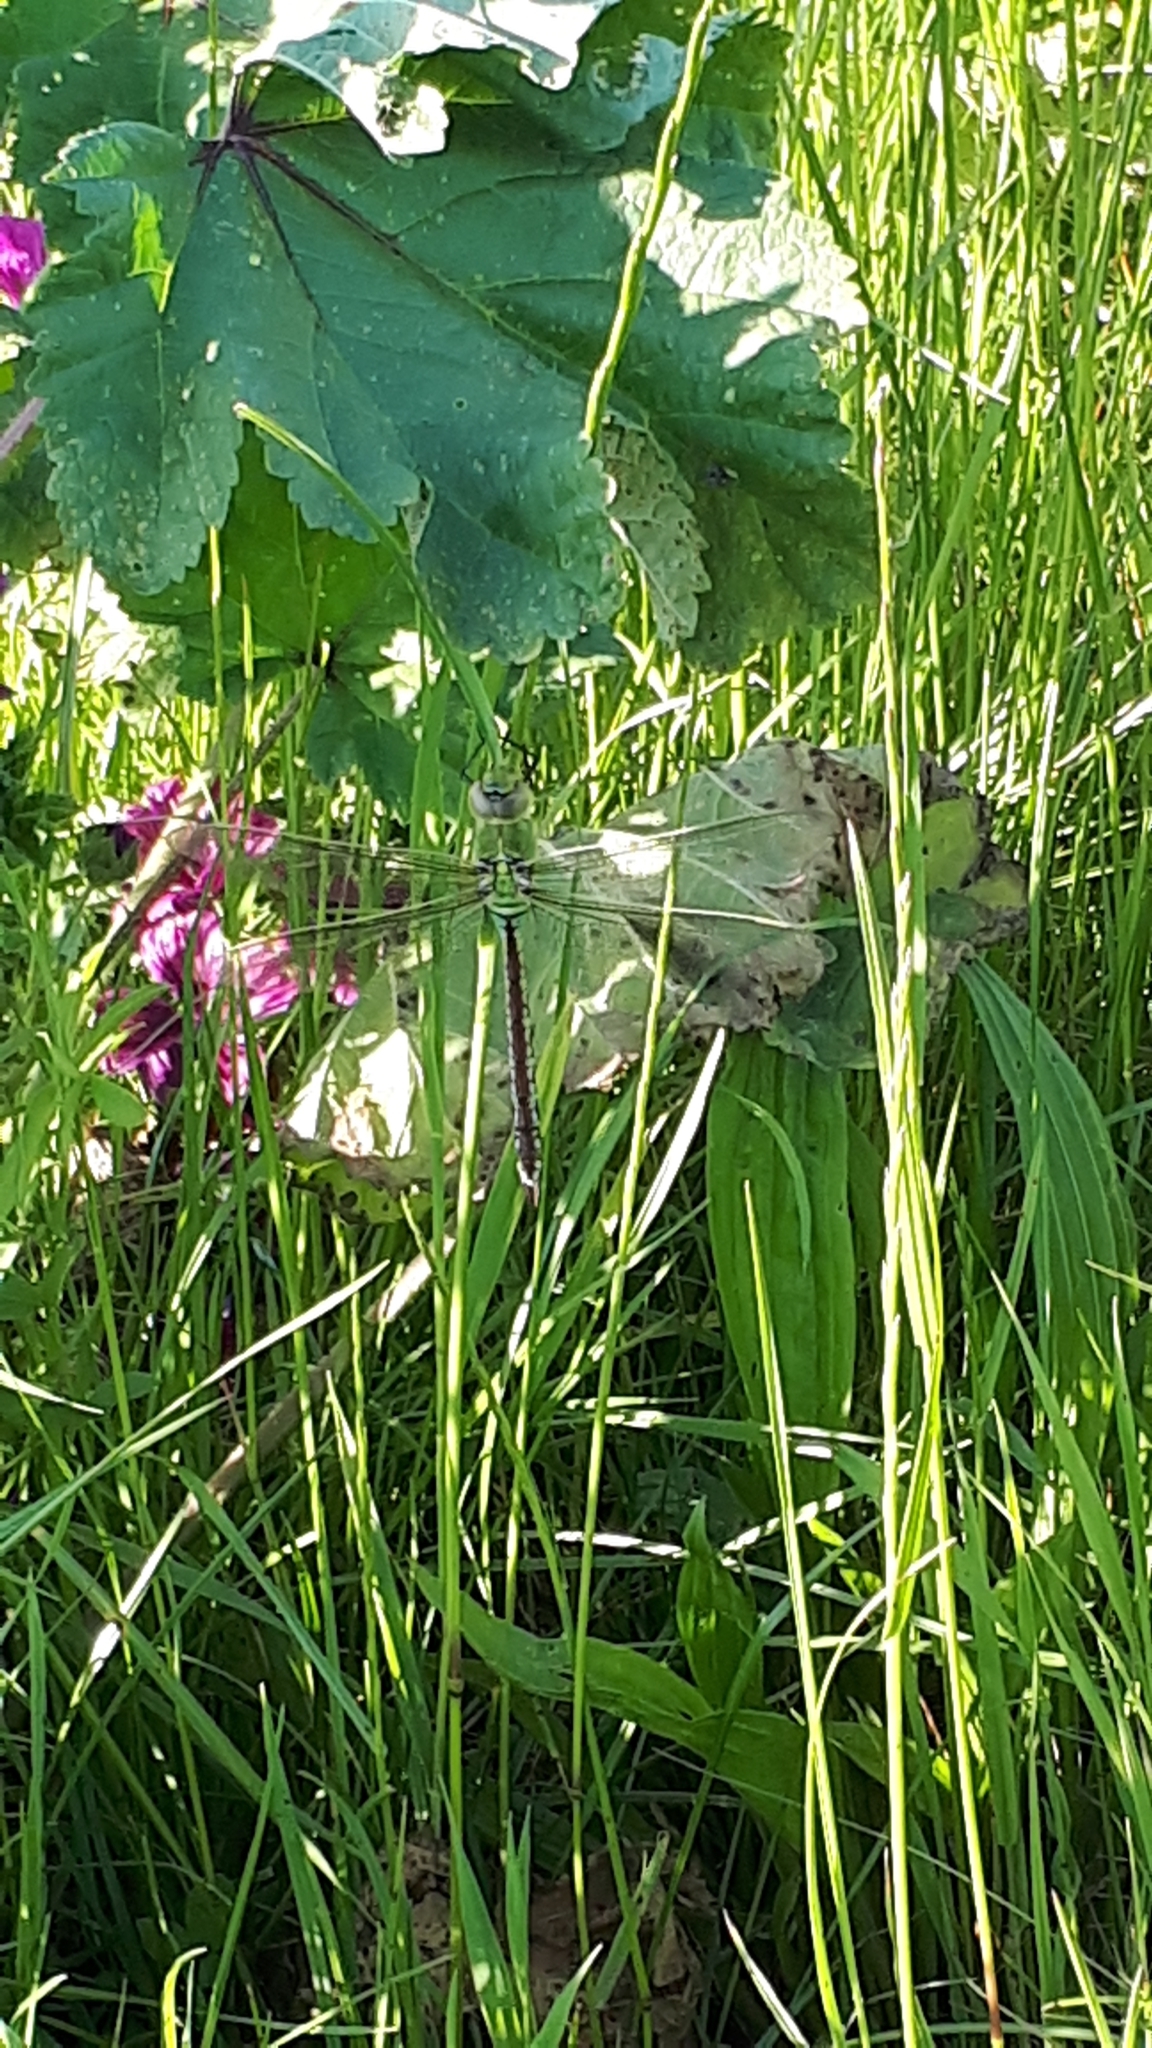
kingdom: Animalia
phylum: Arthropoda
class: Insecta
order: Odonata
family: Aeshnidae
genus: Anax
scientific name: Anax imperator
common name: Emperor dragonfly
